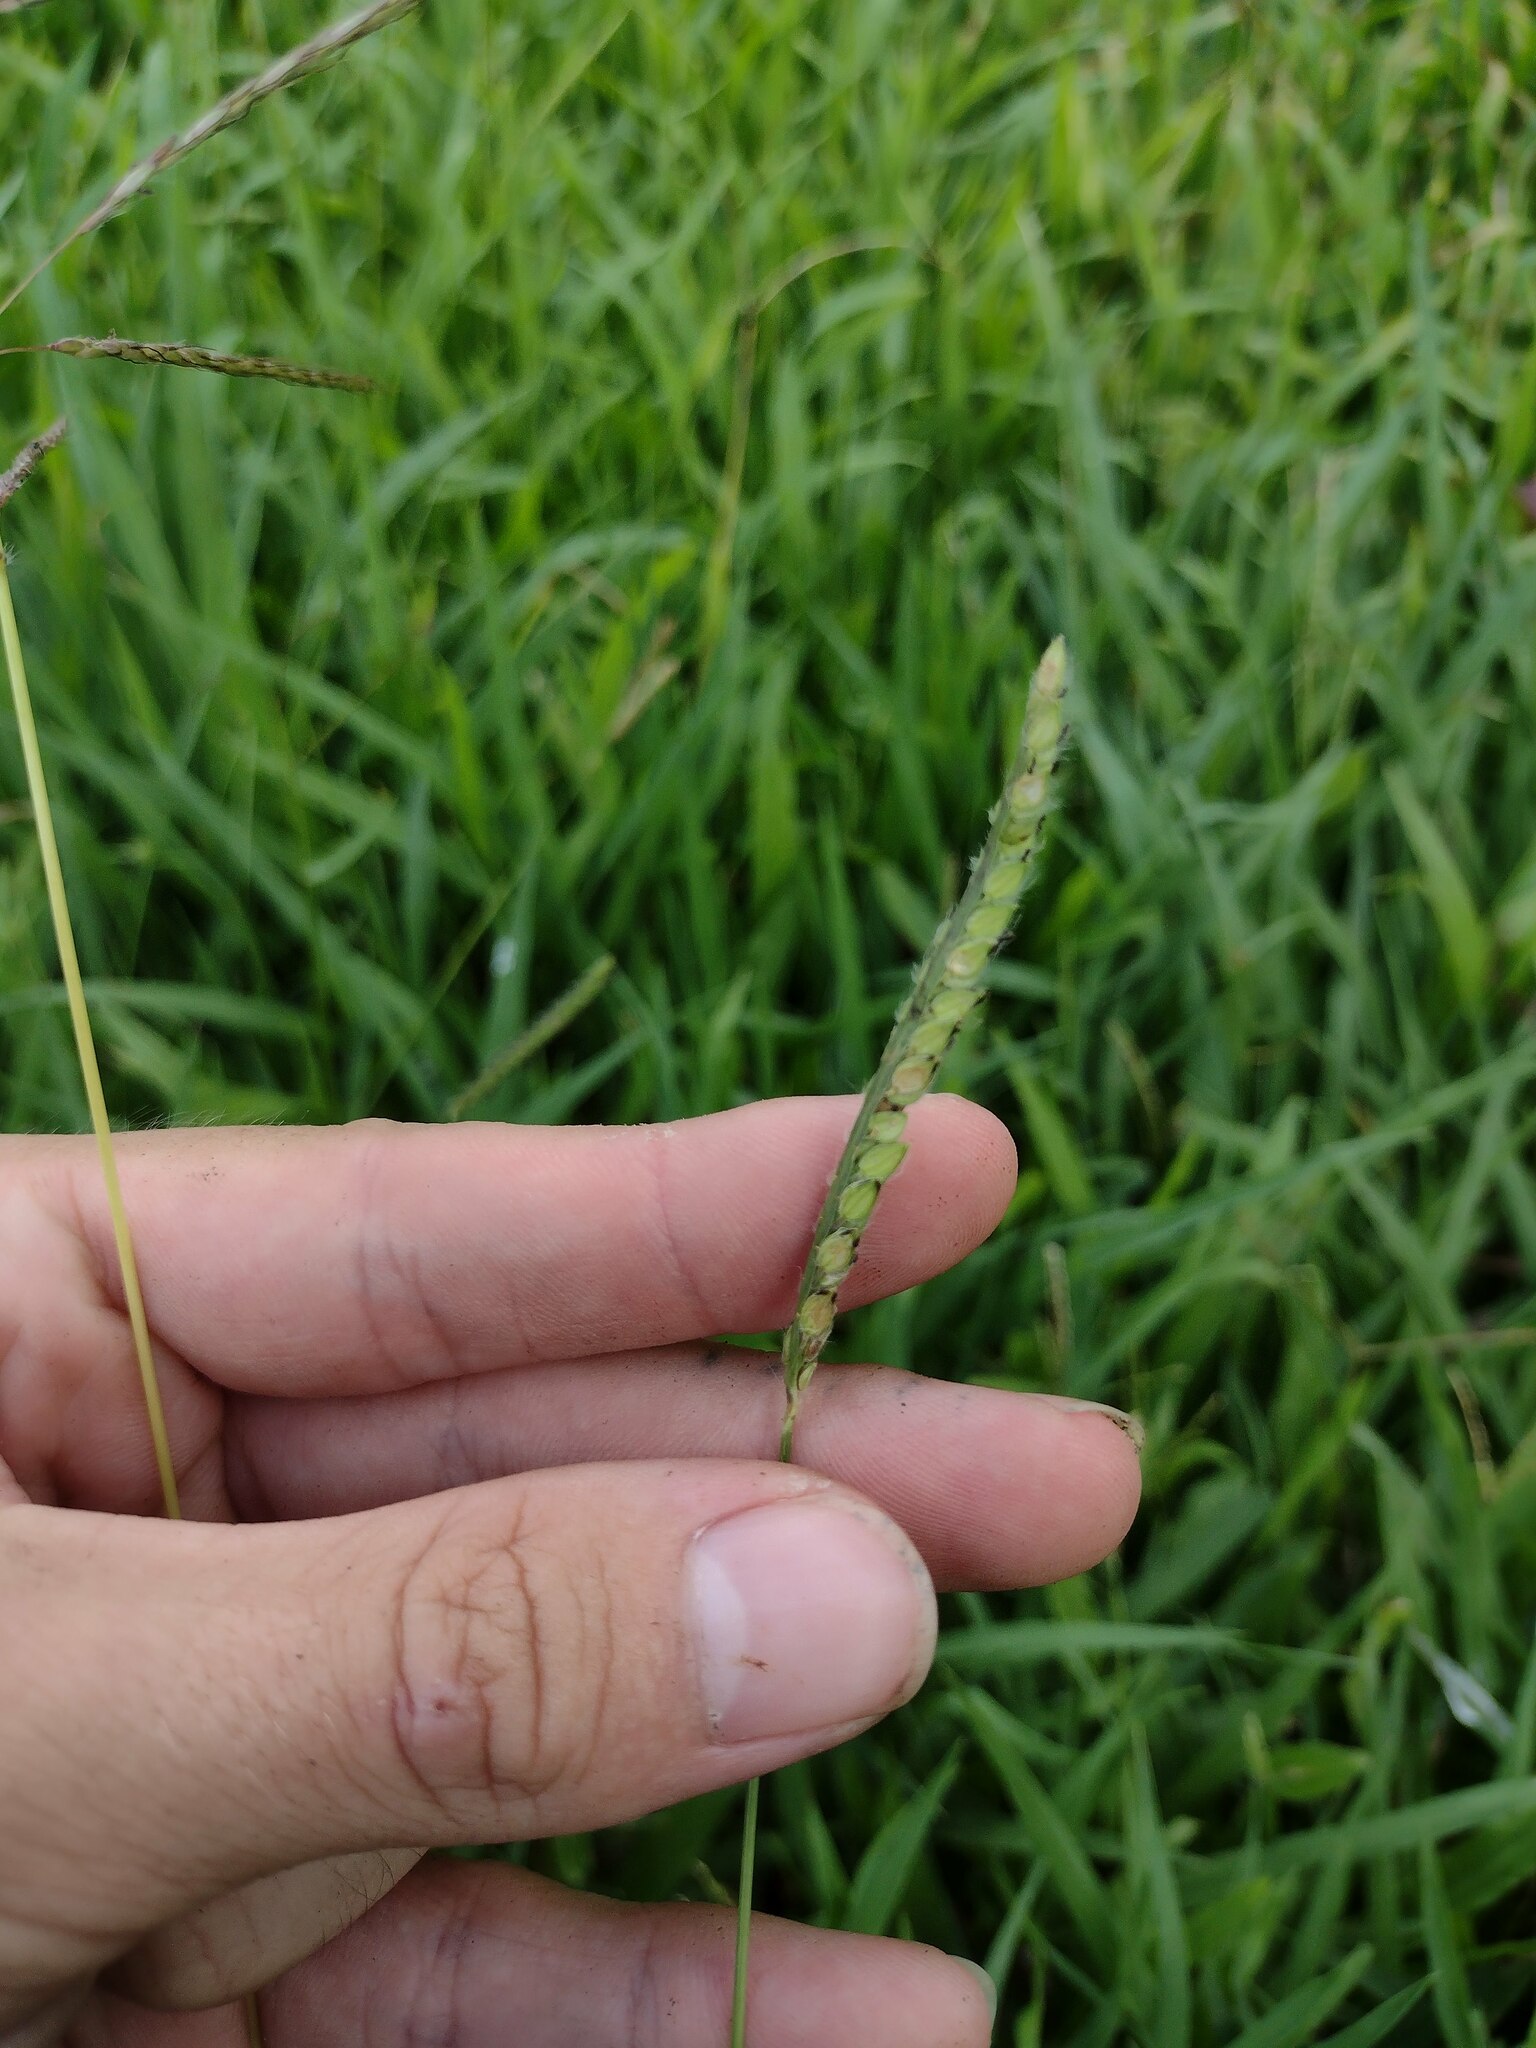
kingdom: Plantae
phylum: Tracheophyta
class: Liliopsida
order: Poales
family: Poaceae
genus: Paspalum
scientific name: Paspalum dilatatum
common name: Dallisgrass
